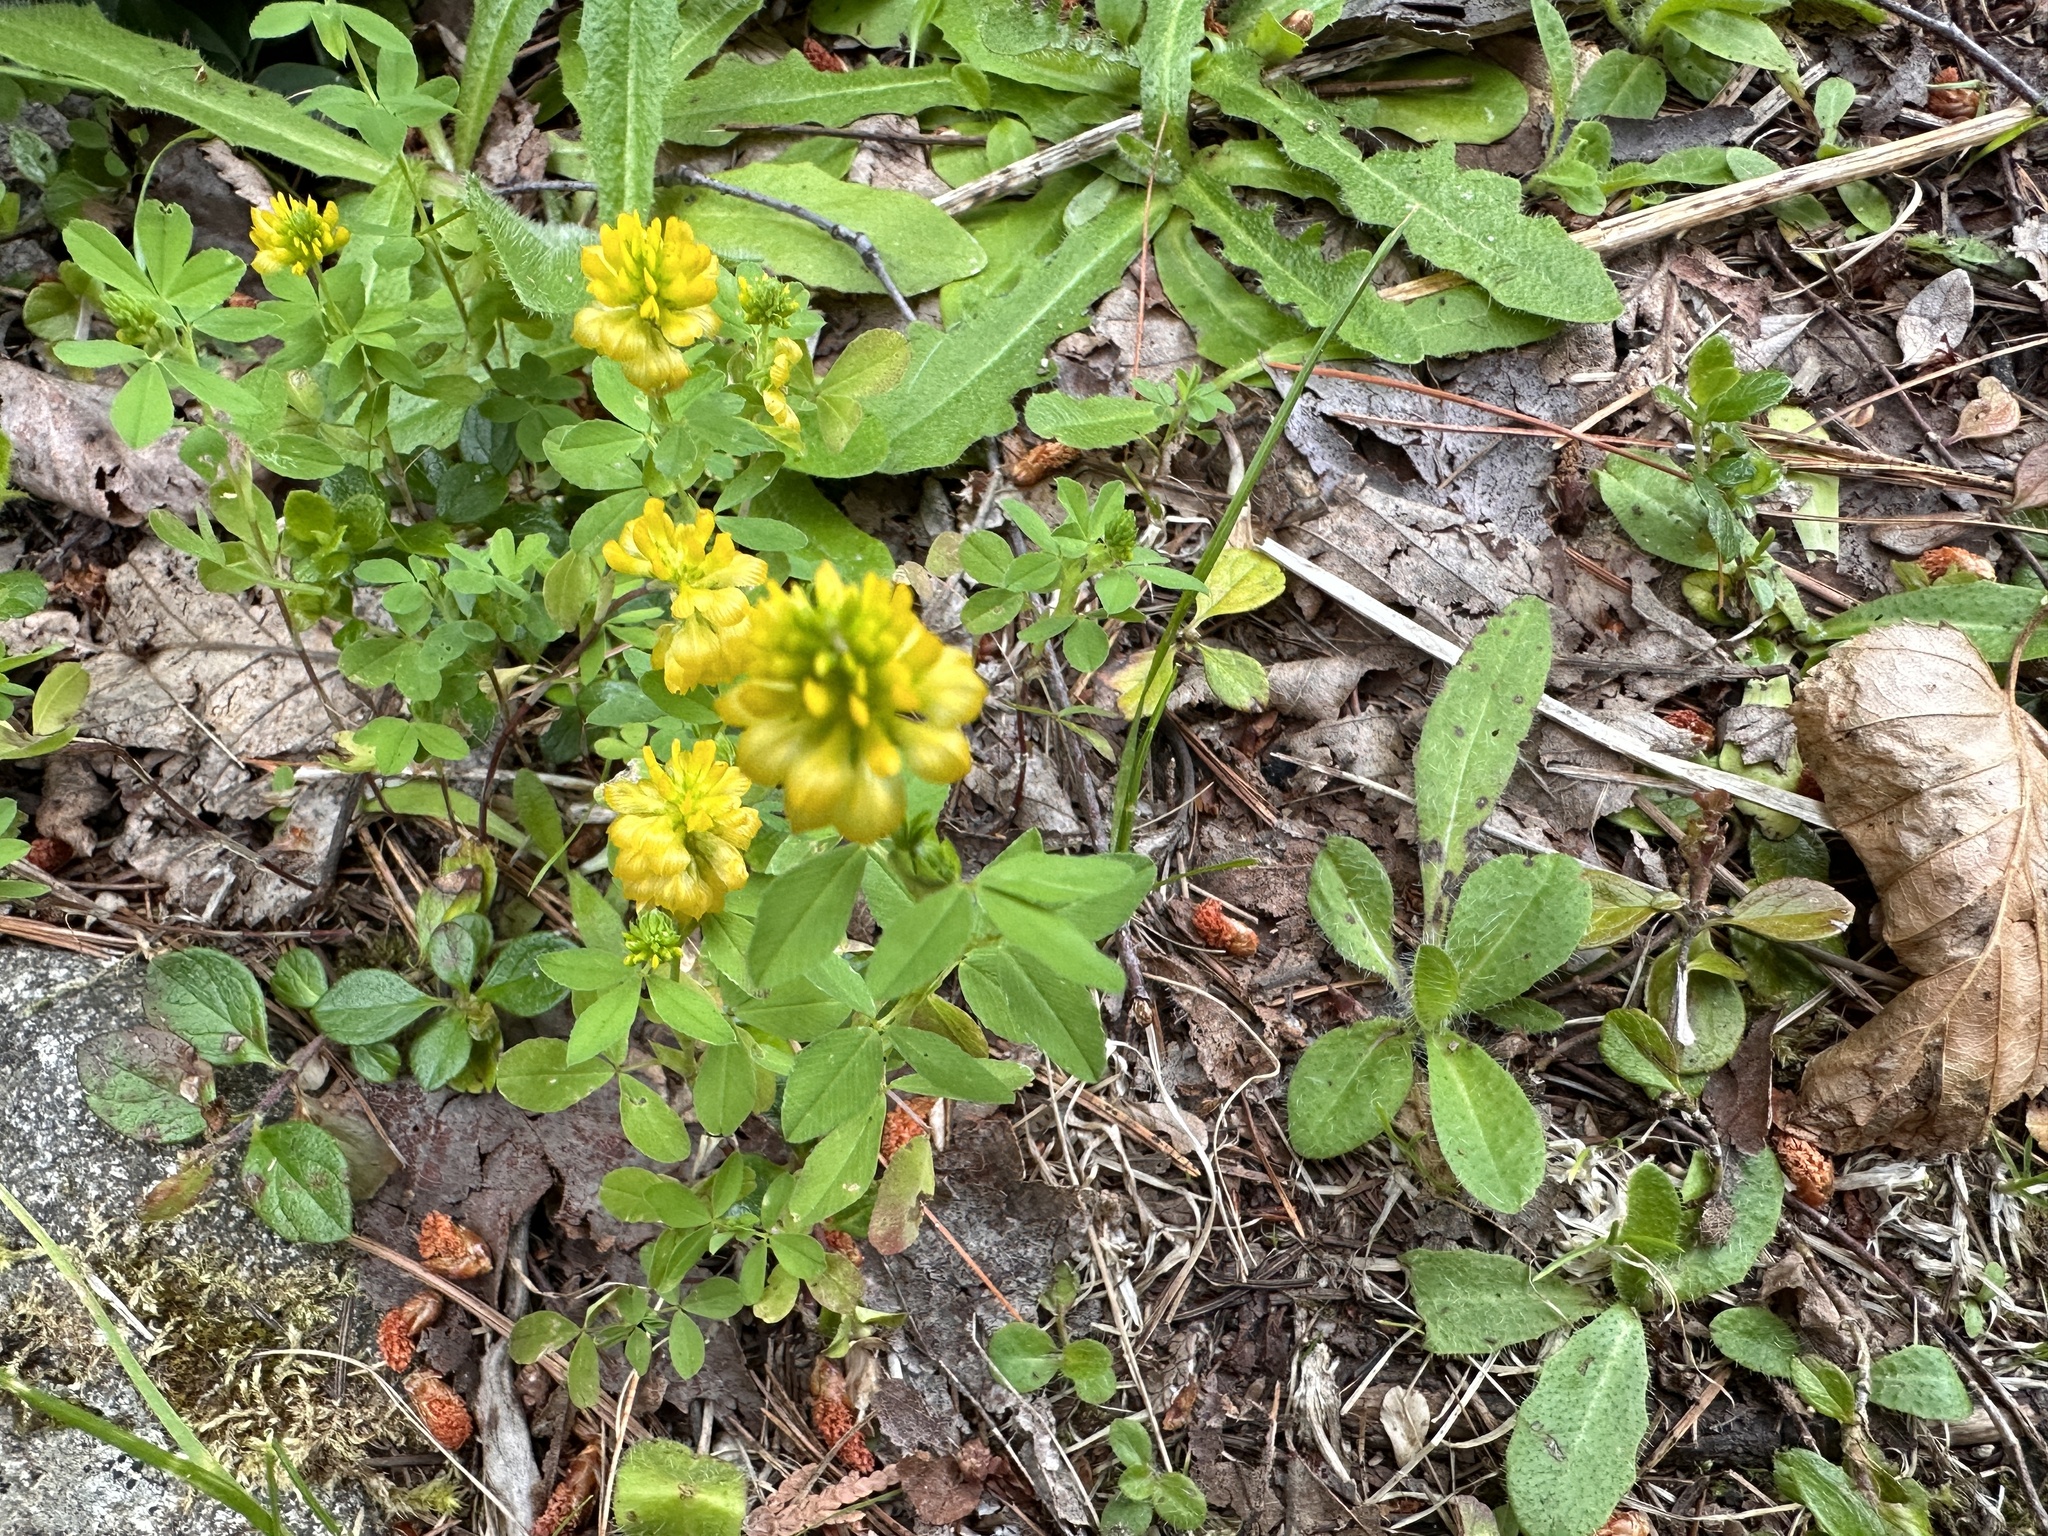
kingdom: Plantae
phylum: Tracheophyta
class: Magnoliopsida
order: Fabales
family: Fabaceae
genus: Trifolium
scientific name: Trifolium aureum
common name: Golden clover
